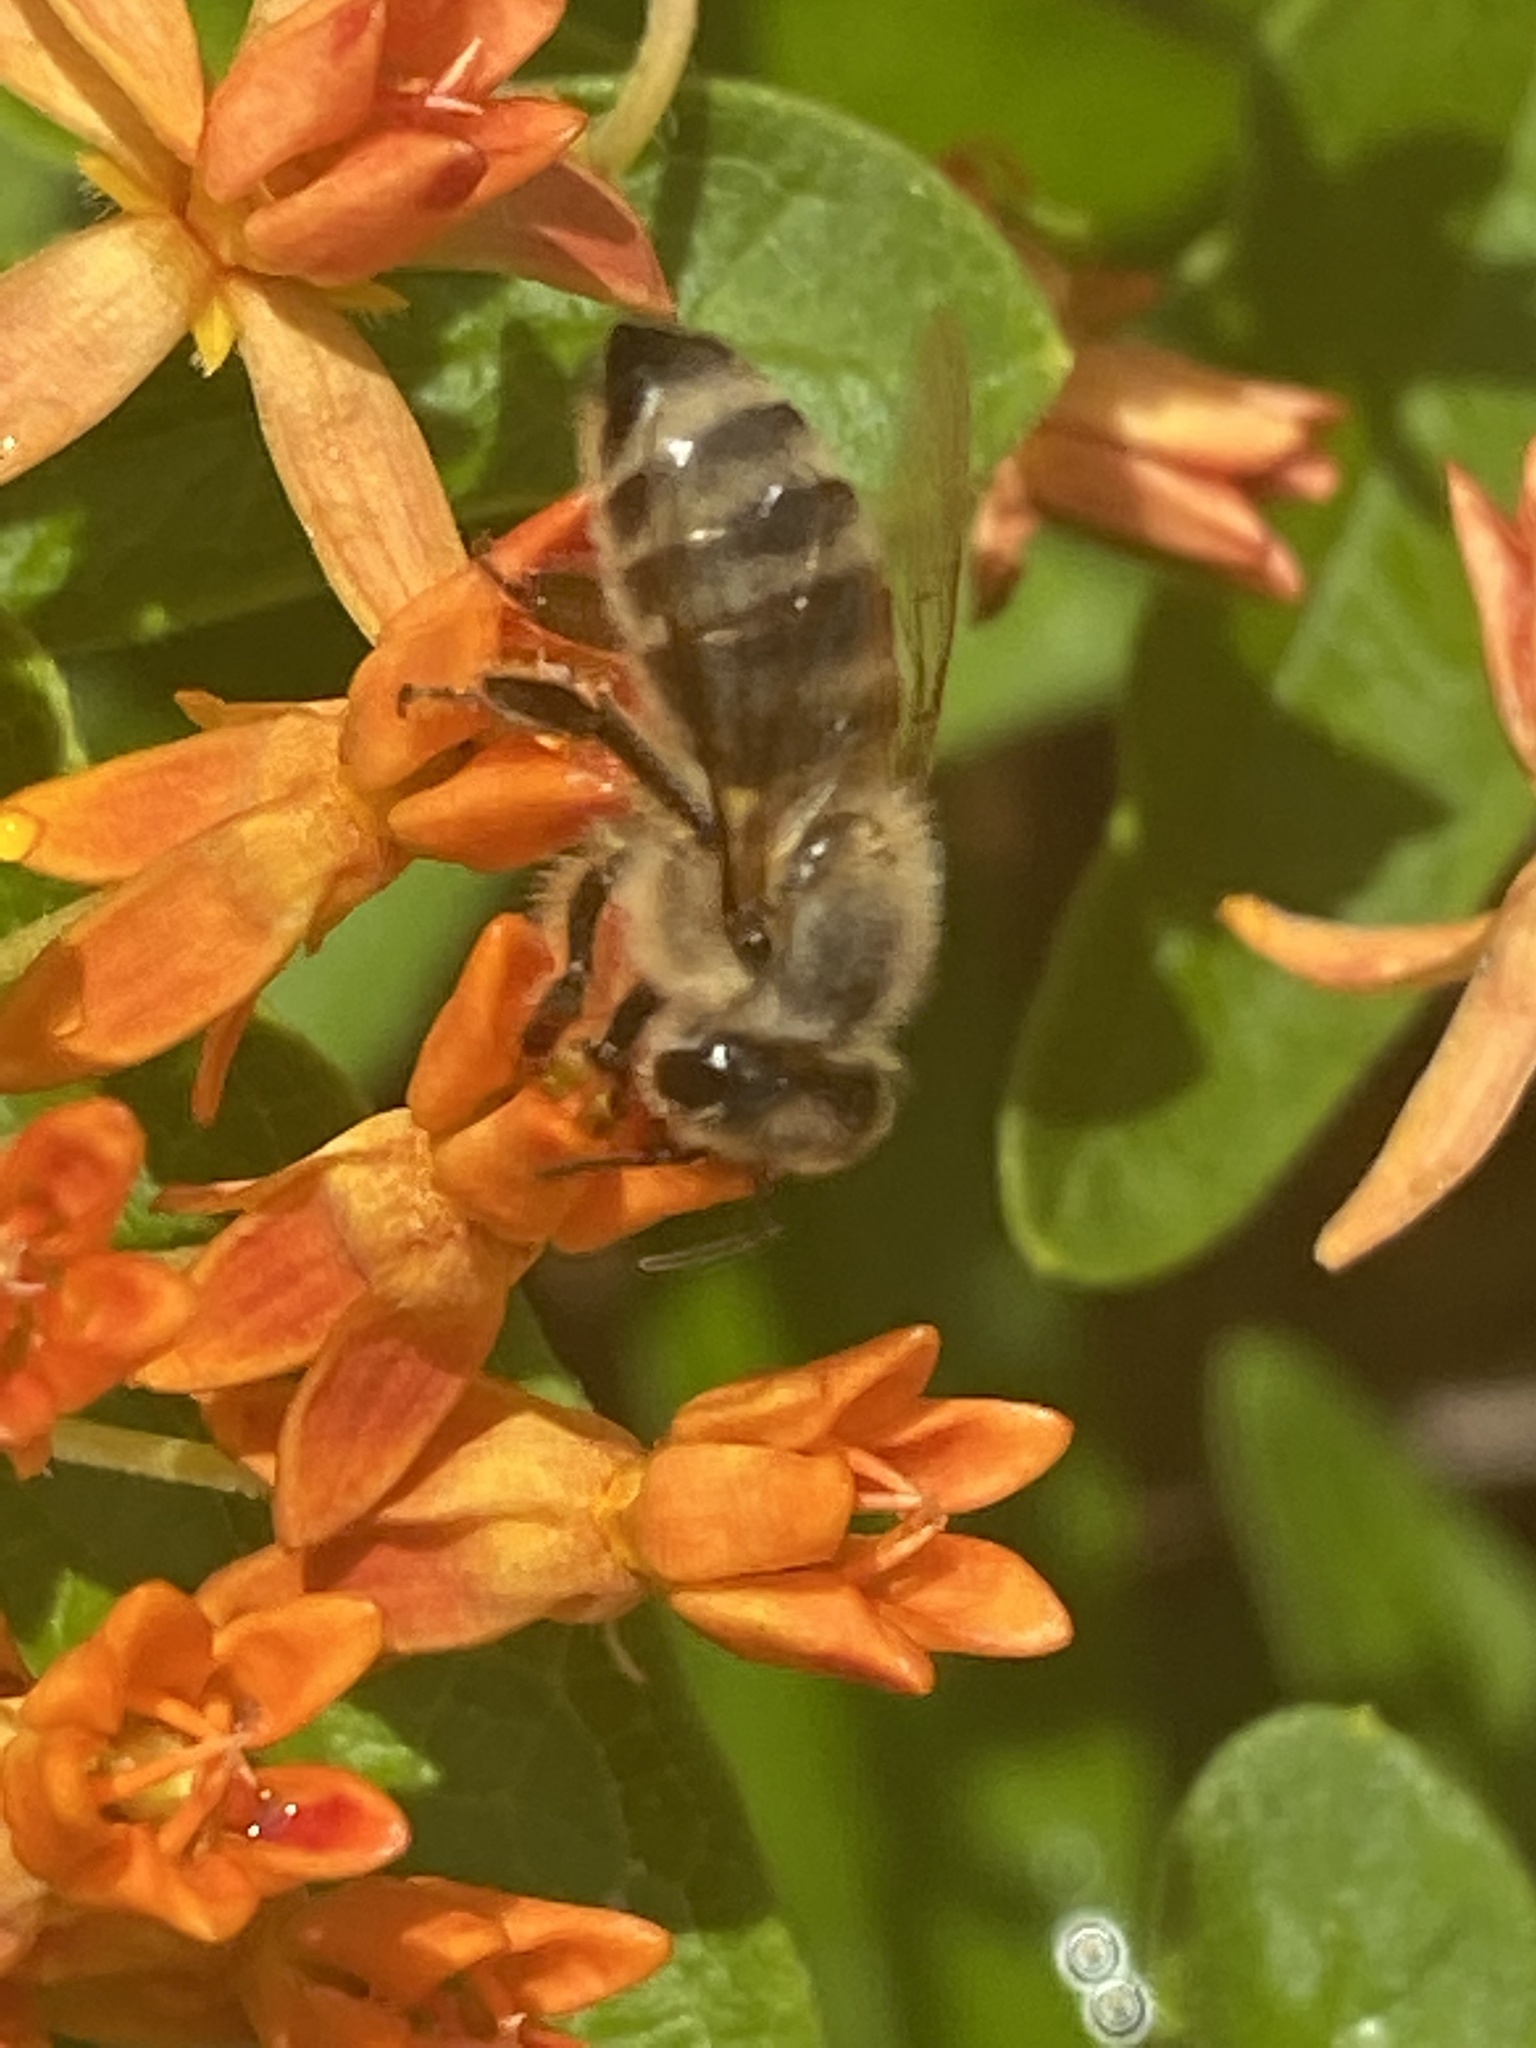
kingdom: Animalia
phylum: Arthropoda
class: Insecta
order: Hymenoptera
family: Apidae
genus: Apis
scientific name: Apis mellifera
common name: Honey bee
